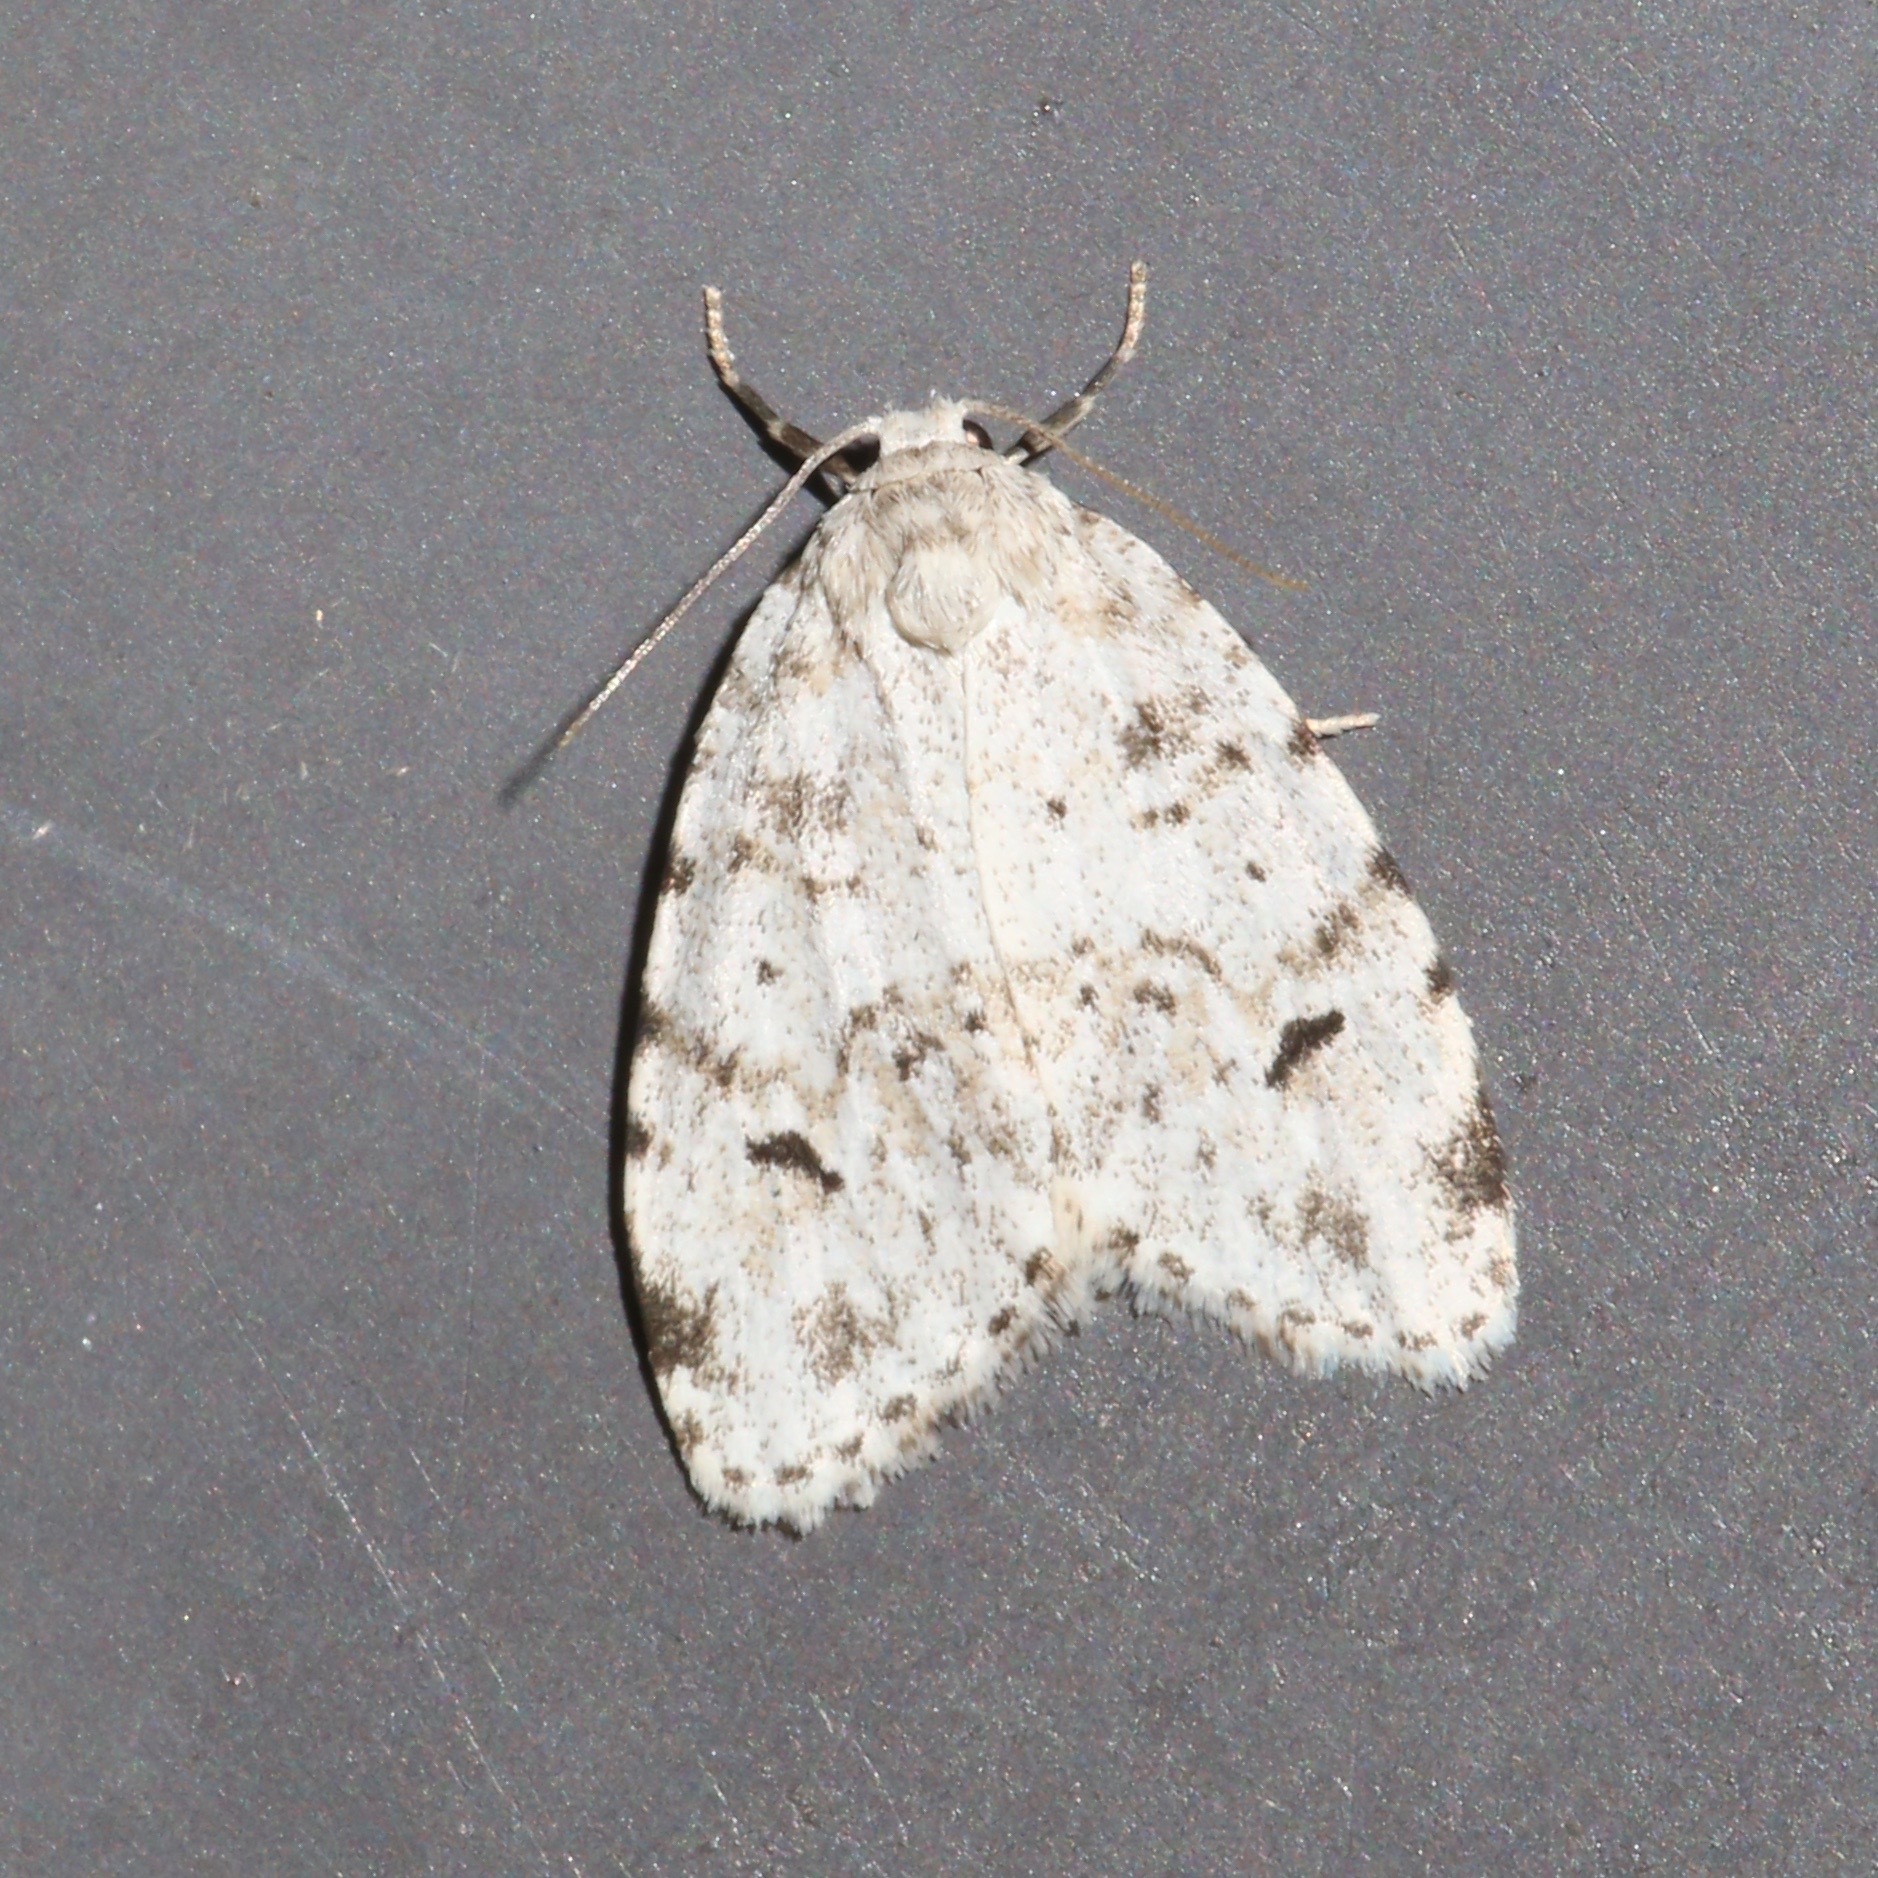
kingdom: Animalia
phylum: Arthropoda
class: Insecta
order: Lepidoptera
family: Erebidae
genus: Clemensia
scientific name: Clemensia albata
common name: Little white lichen moth
